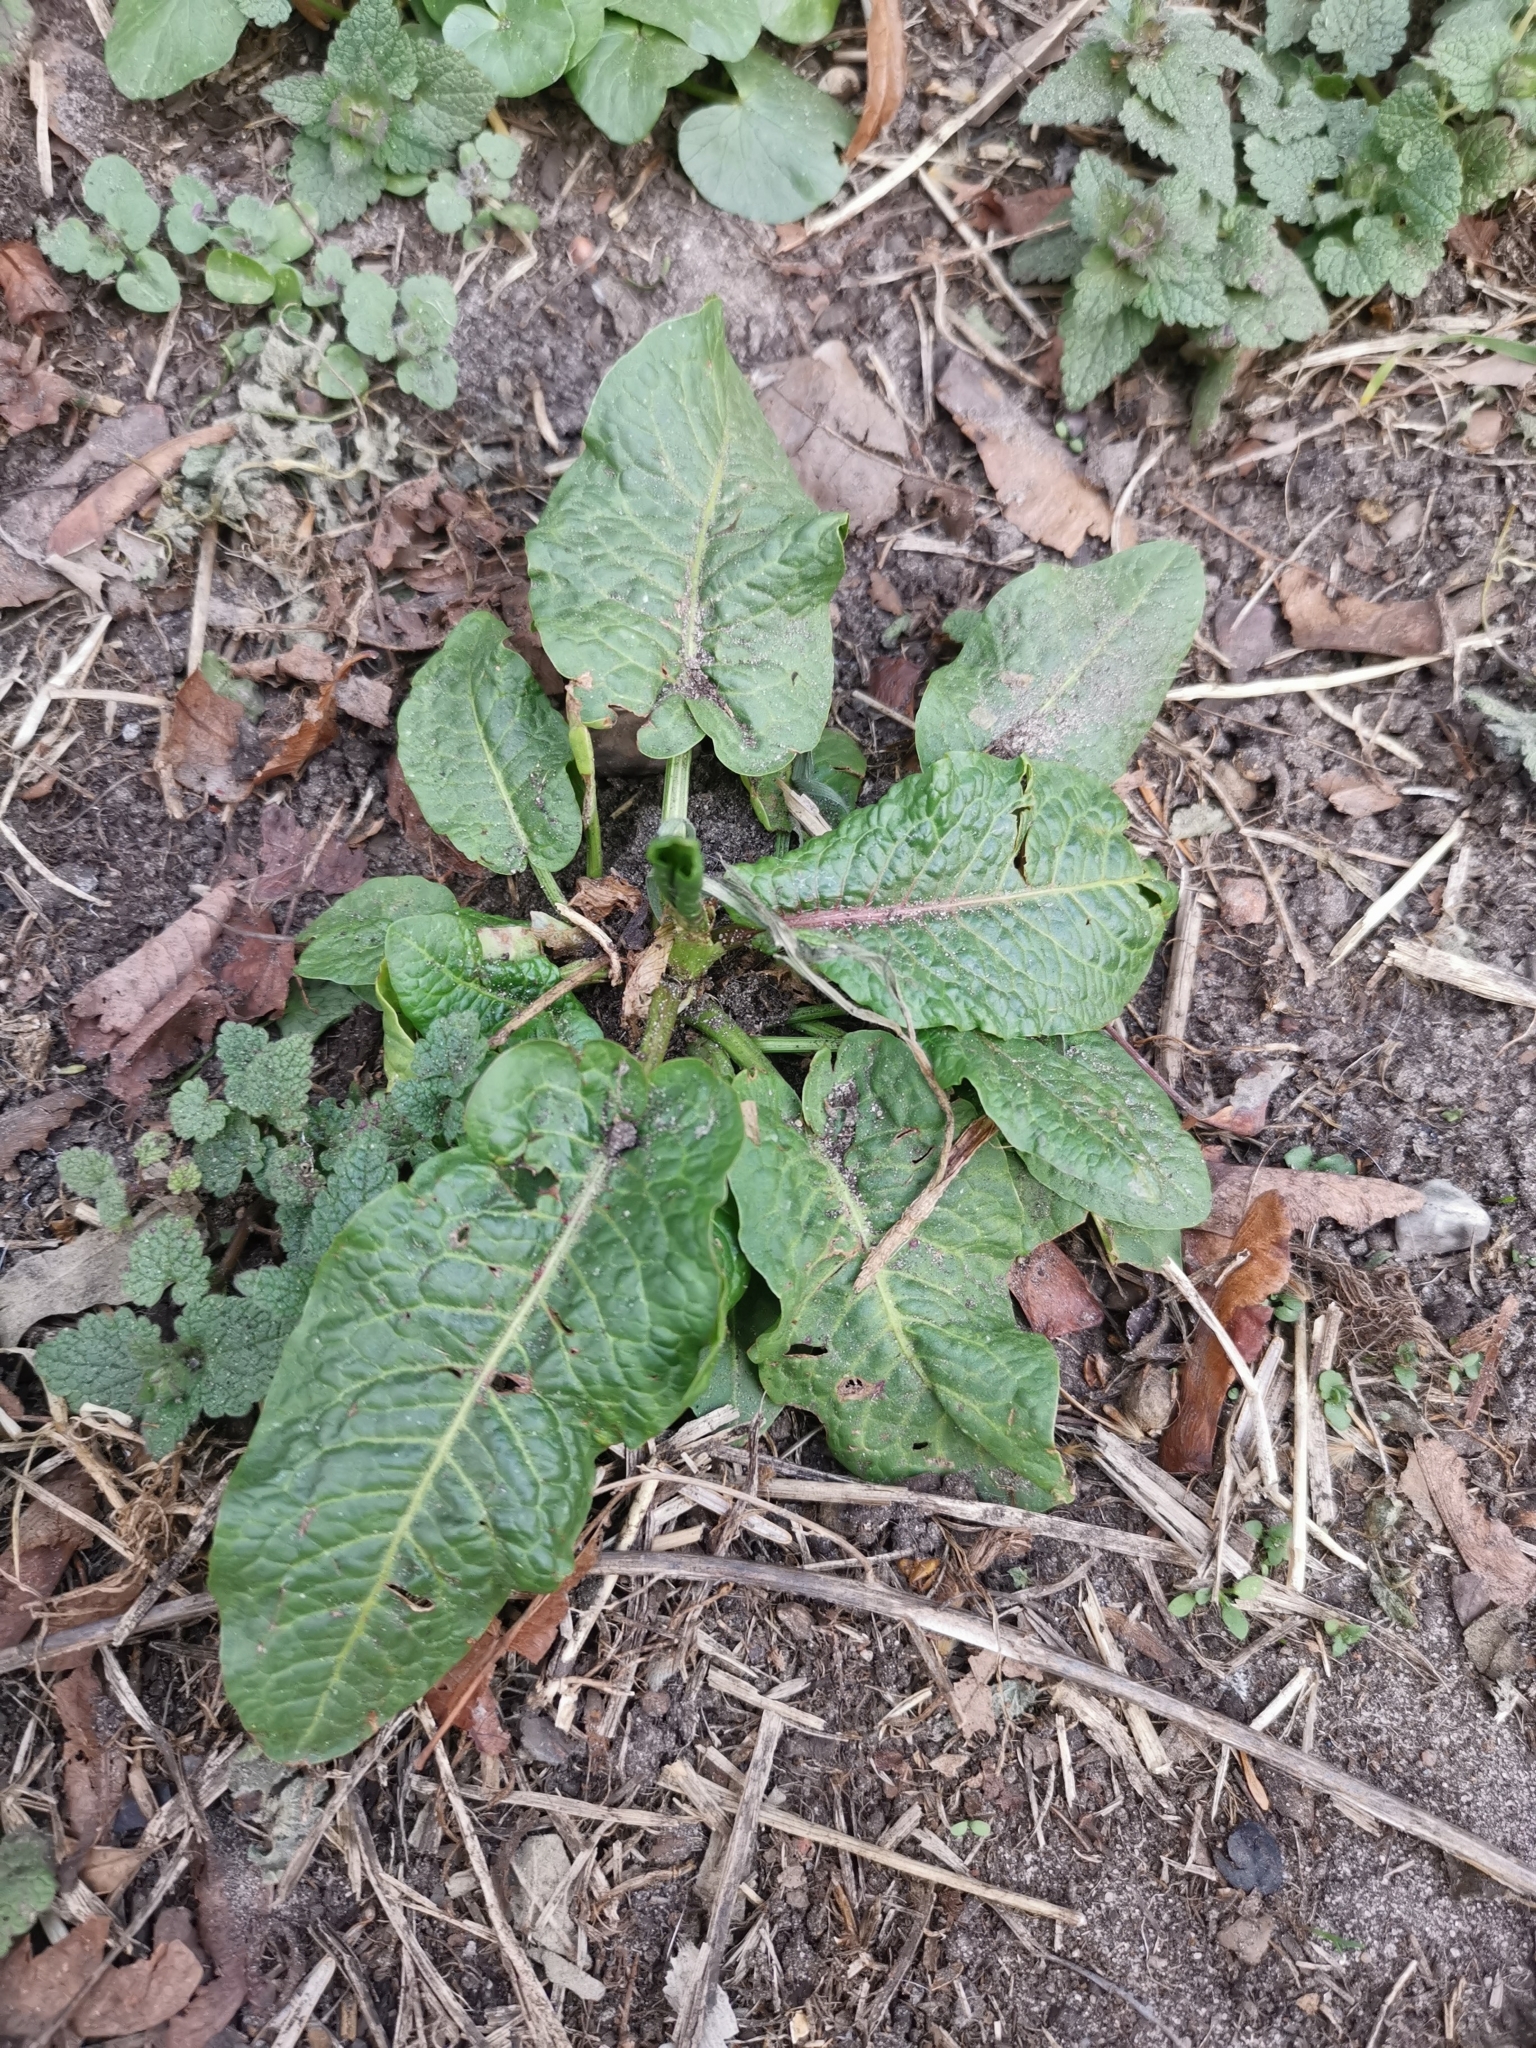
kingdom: Plantae
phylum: Tracheophyta
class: Magnoliopsida
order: Caryophyllales
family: Polygonaceae
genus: Rumex
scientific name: Rumex obtusifolius
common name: Bitter dock
